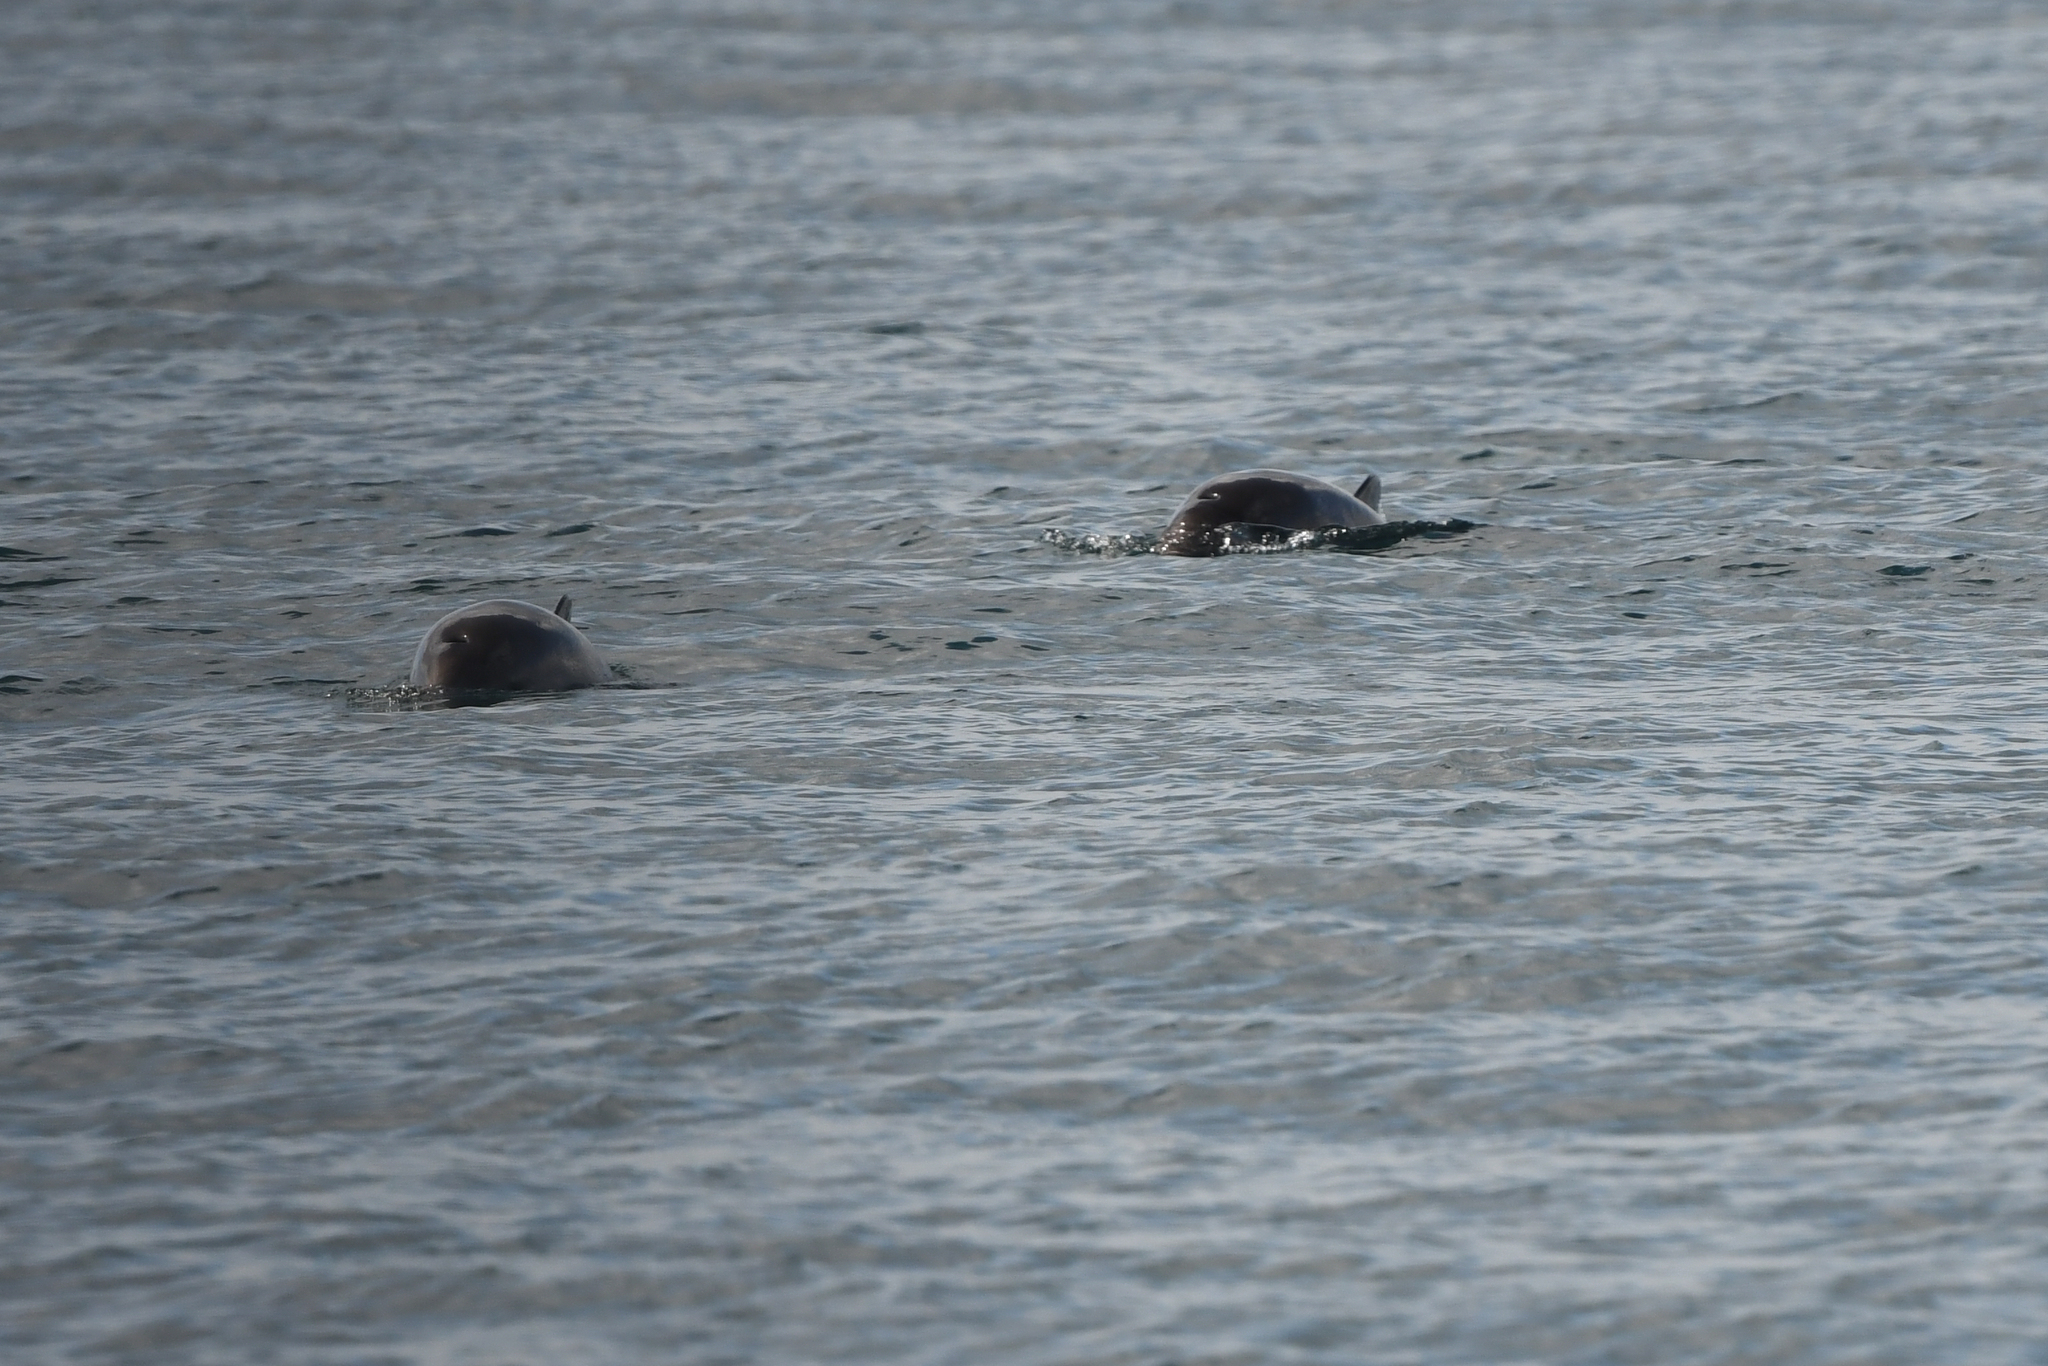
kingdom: Animalia
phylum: Chordata
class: Mammalia
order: Cetacea
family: Phocoenidae
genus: Phocoena
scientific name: Phocoena phocoena
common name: Harbor porpoise
